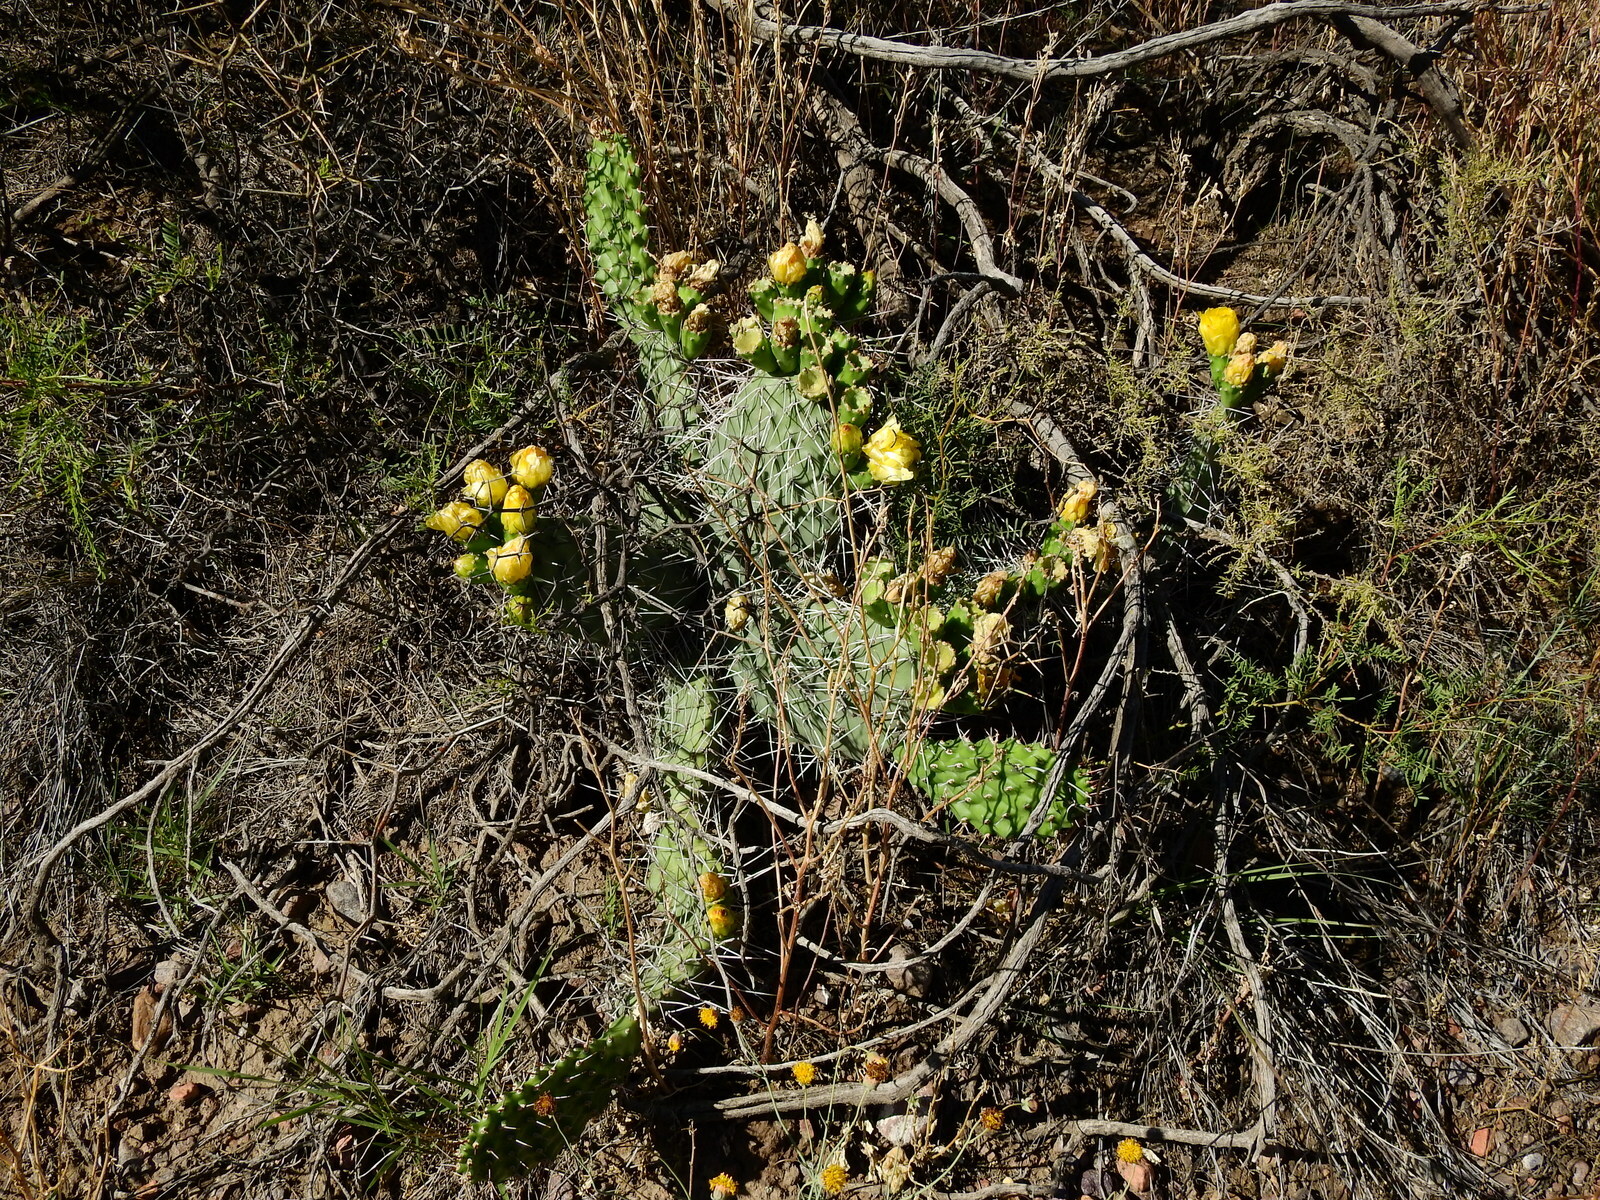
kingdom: Plantae
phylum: Tracheophyta
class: Magnoliopsida
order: Caryophyllales
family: Cactaceae
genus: Opuntia
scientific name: Opuntia sulphurea
